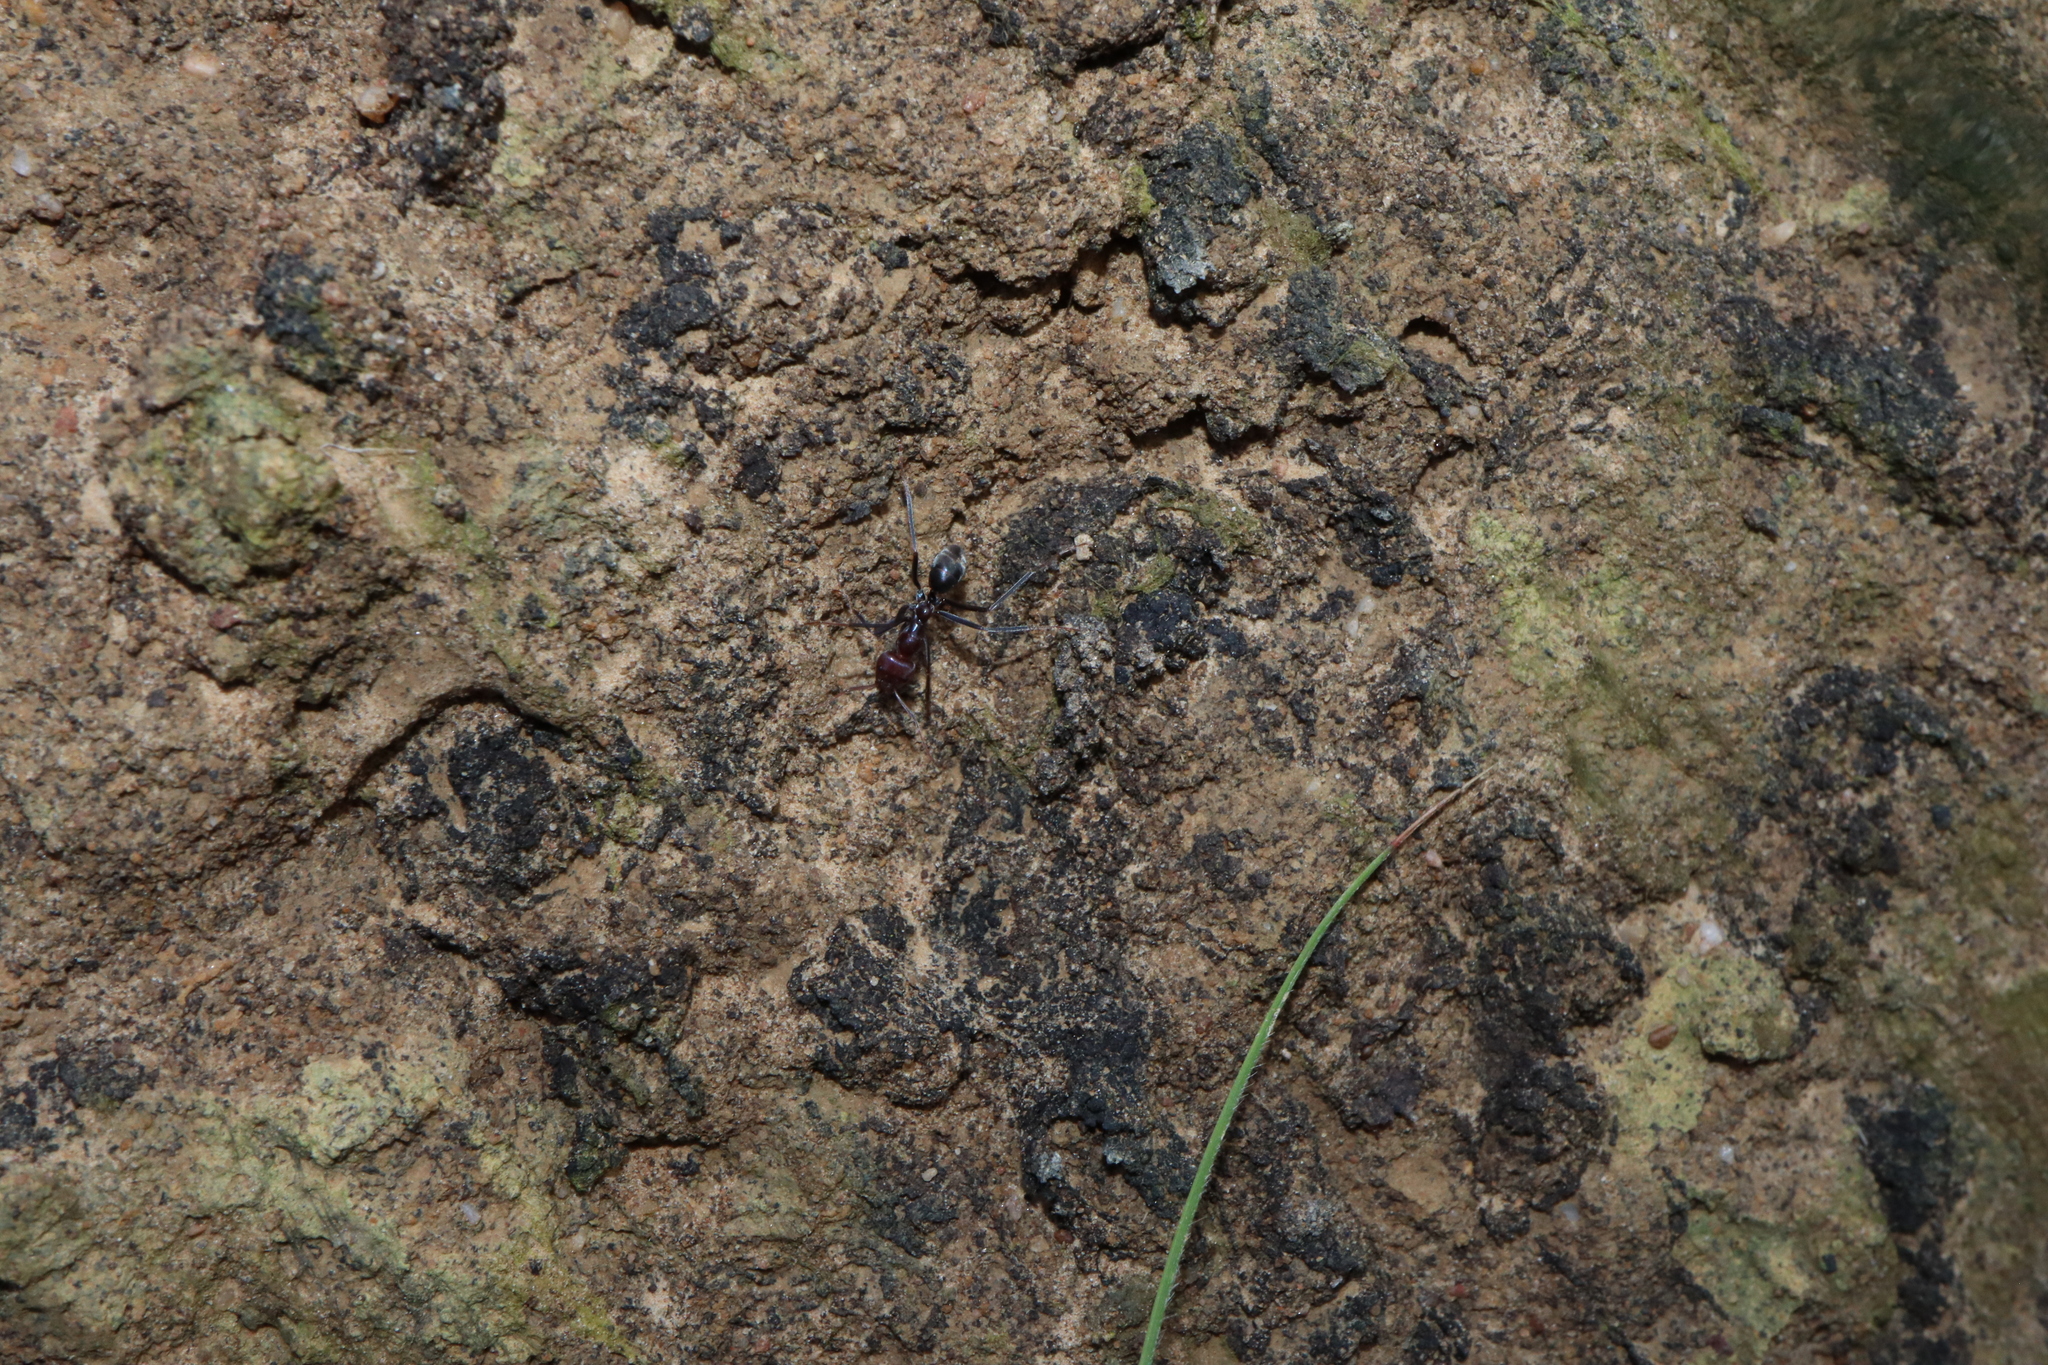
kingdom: Animalia
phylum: Arthropoda
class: Insecta
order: Hymenoptera
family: Formicidae
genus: Iridomyrmex
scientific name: Iridomyrmex purpureus
